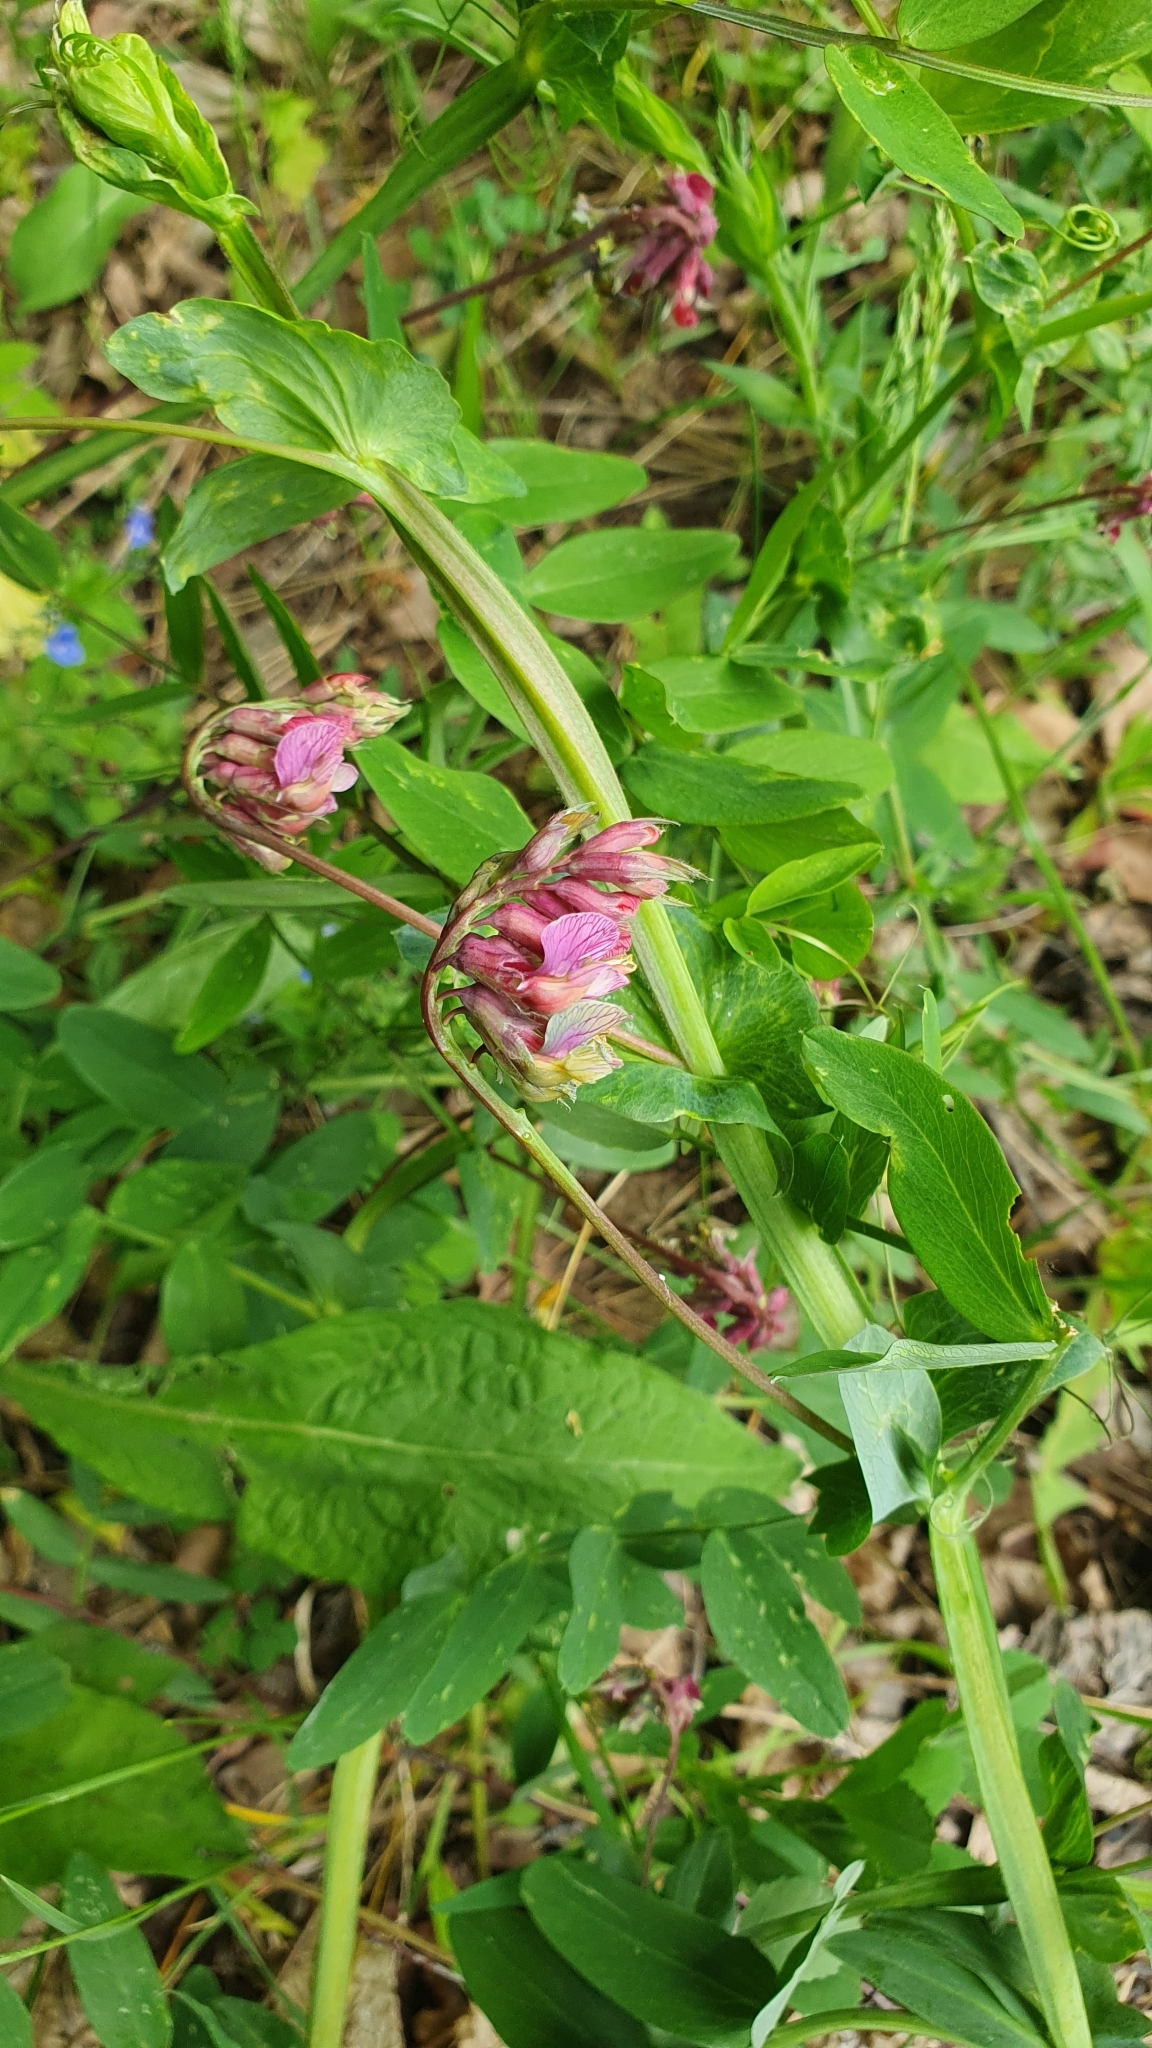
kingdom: Plantae
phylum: Tracheophyta
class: Magnoliopsida
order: Fabales
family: Fabaceae
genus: Lathyrus
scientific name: Lathyrus pisiformis
